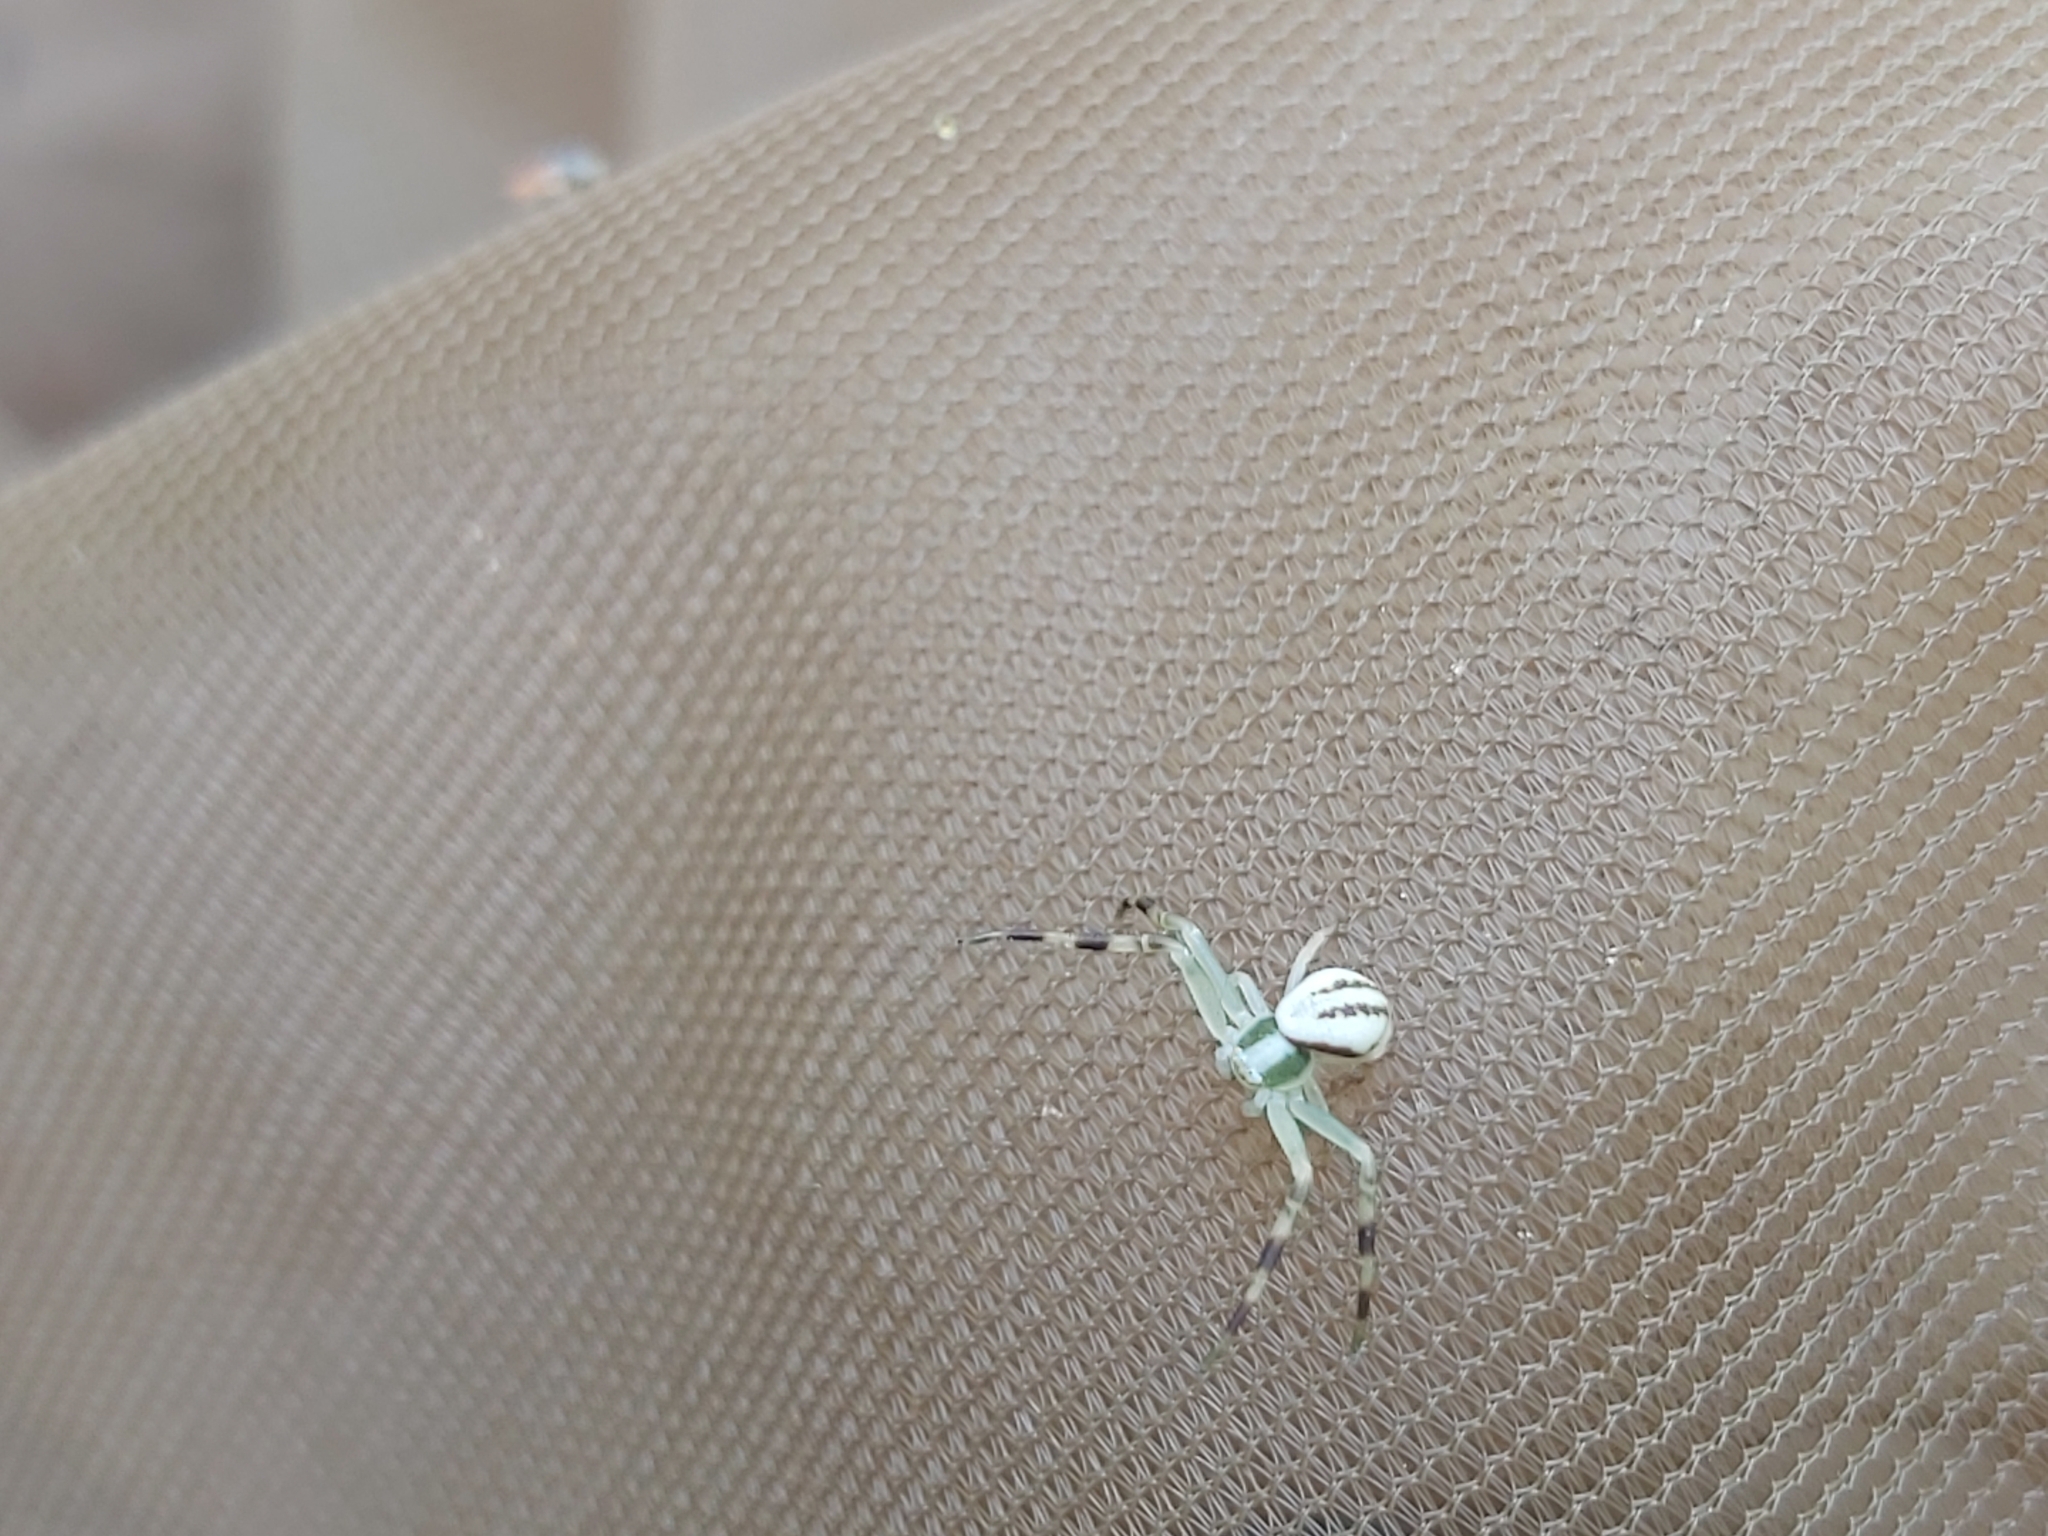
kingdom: Animalia
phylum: Arthropoda
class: Arachnida
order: Araneae
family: Thomisidae
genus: Misumena
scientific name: Misumena vatia
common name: Goldenrod crab spider
